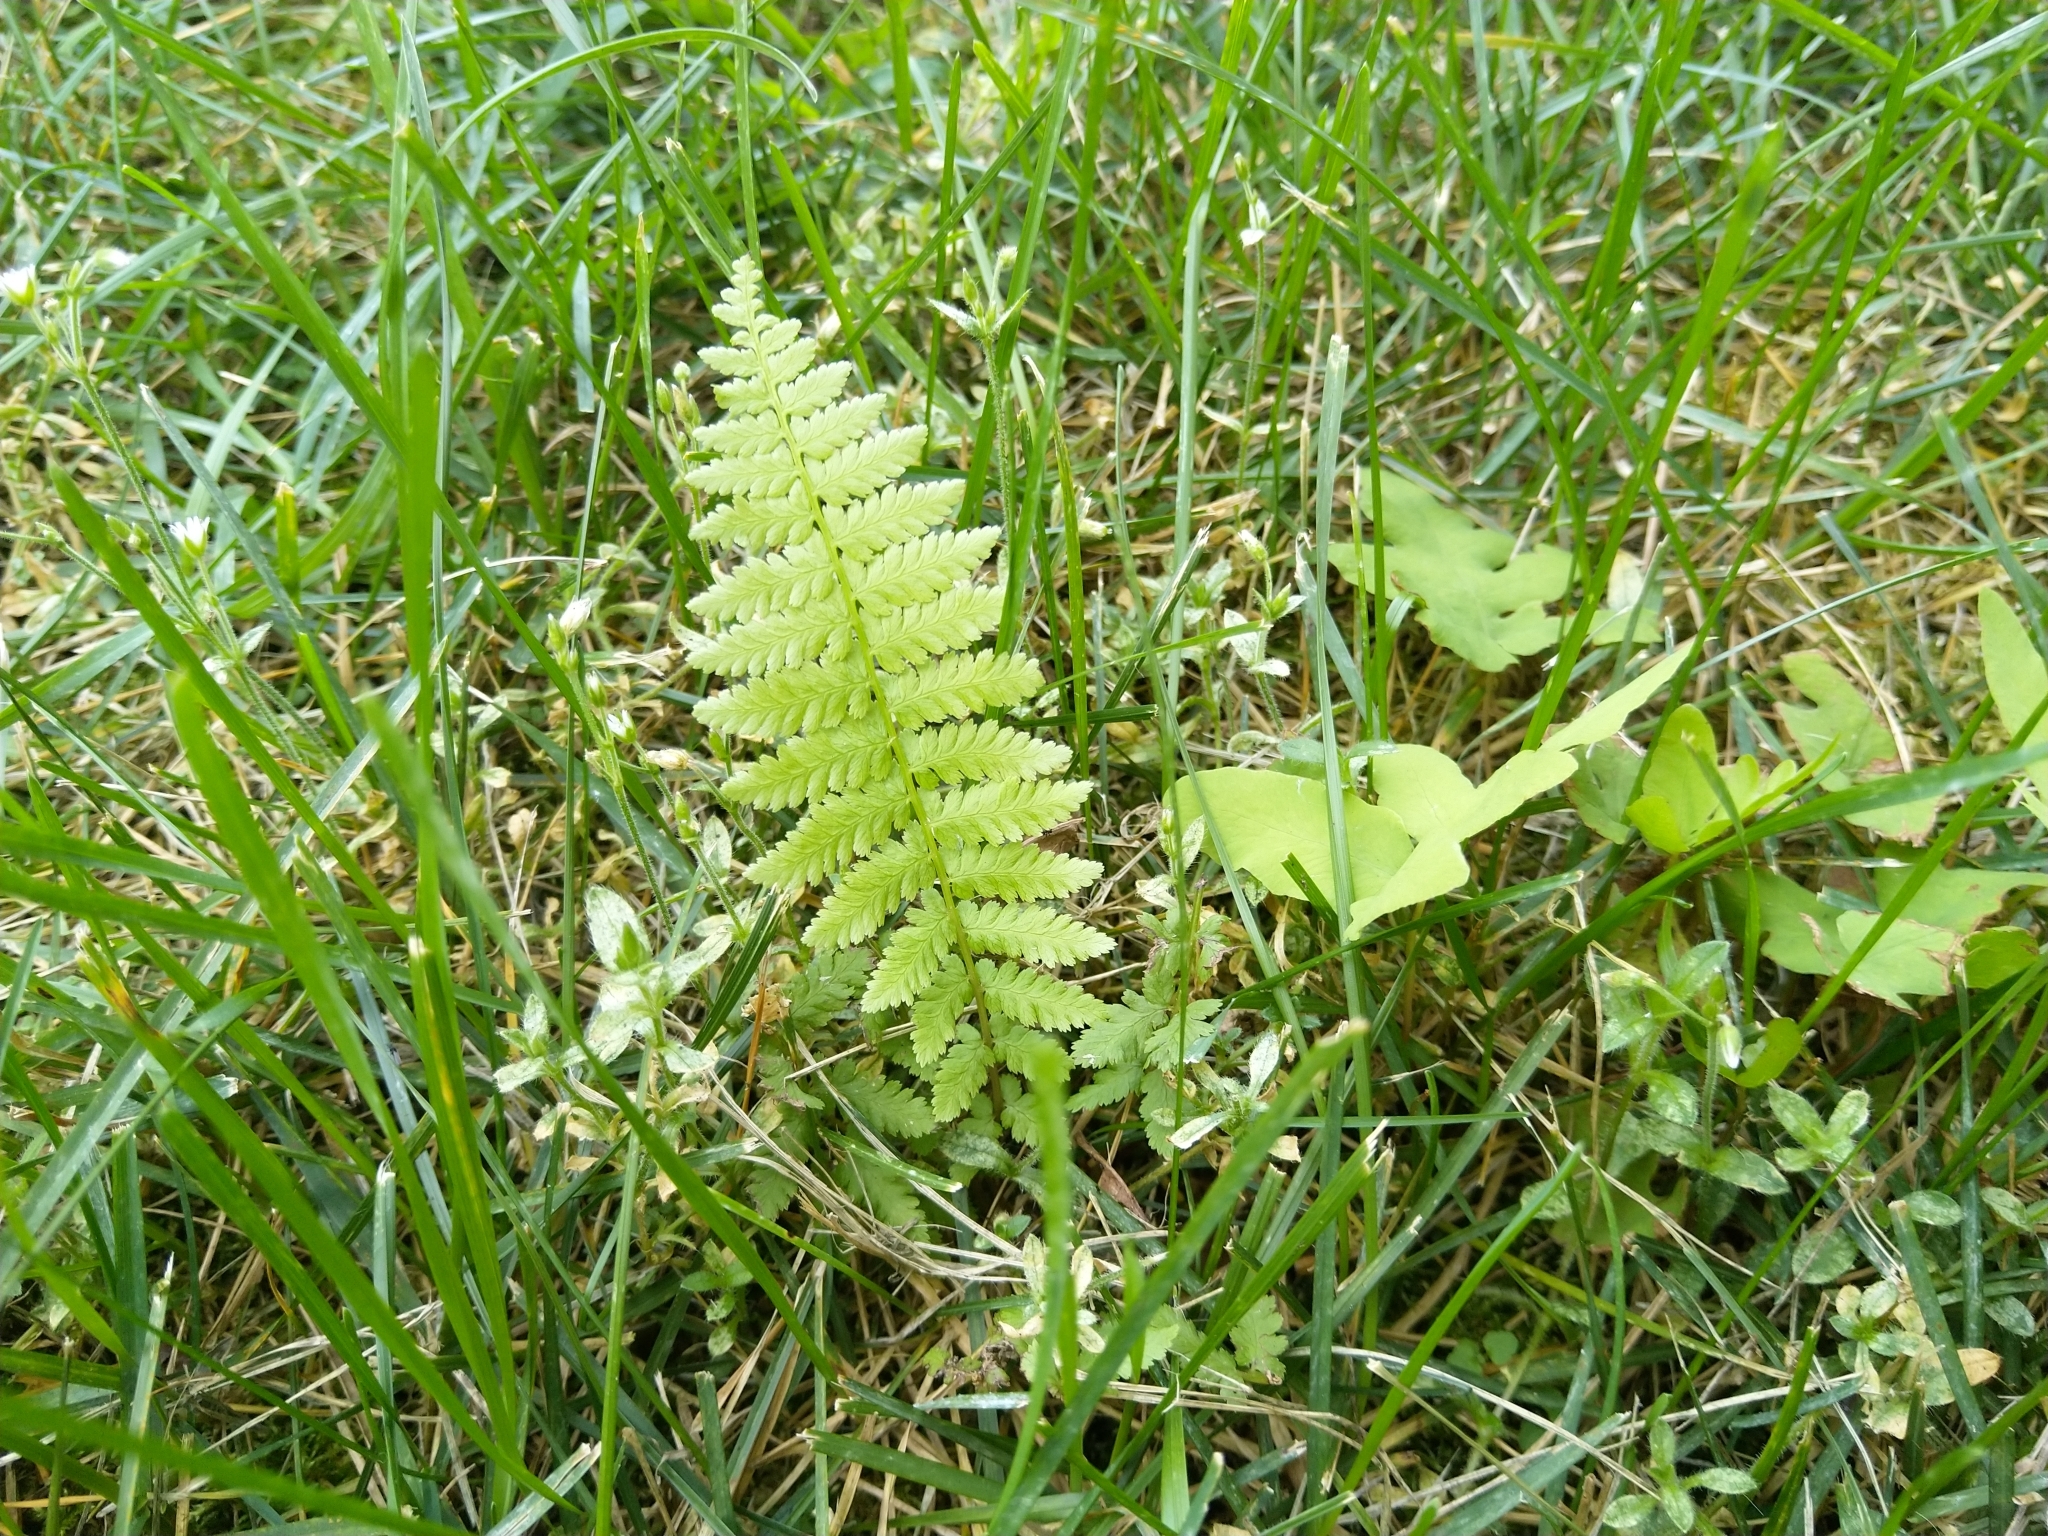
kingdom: Plantae
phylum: Tracheophyta
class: Polypodiopsida
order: Polypodiales
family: Athyriaceae
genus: Athyrium
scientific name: Athyrium angustum
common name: Northern lady fern
